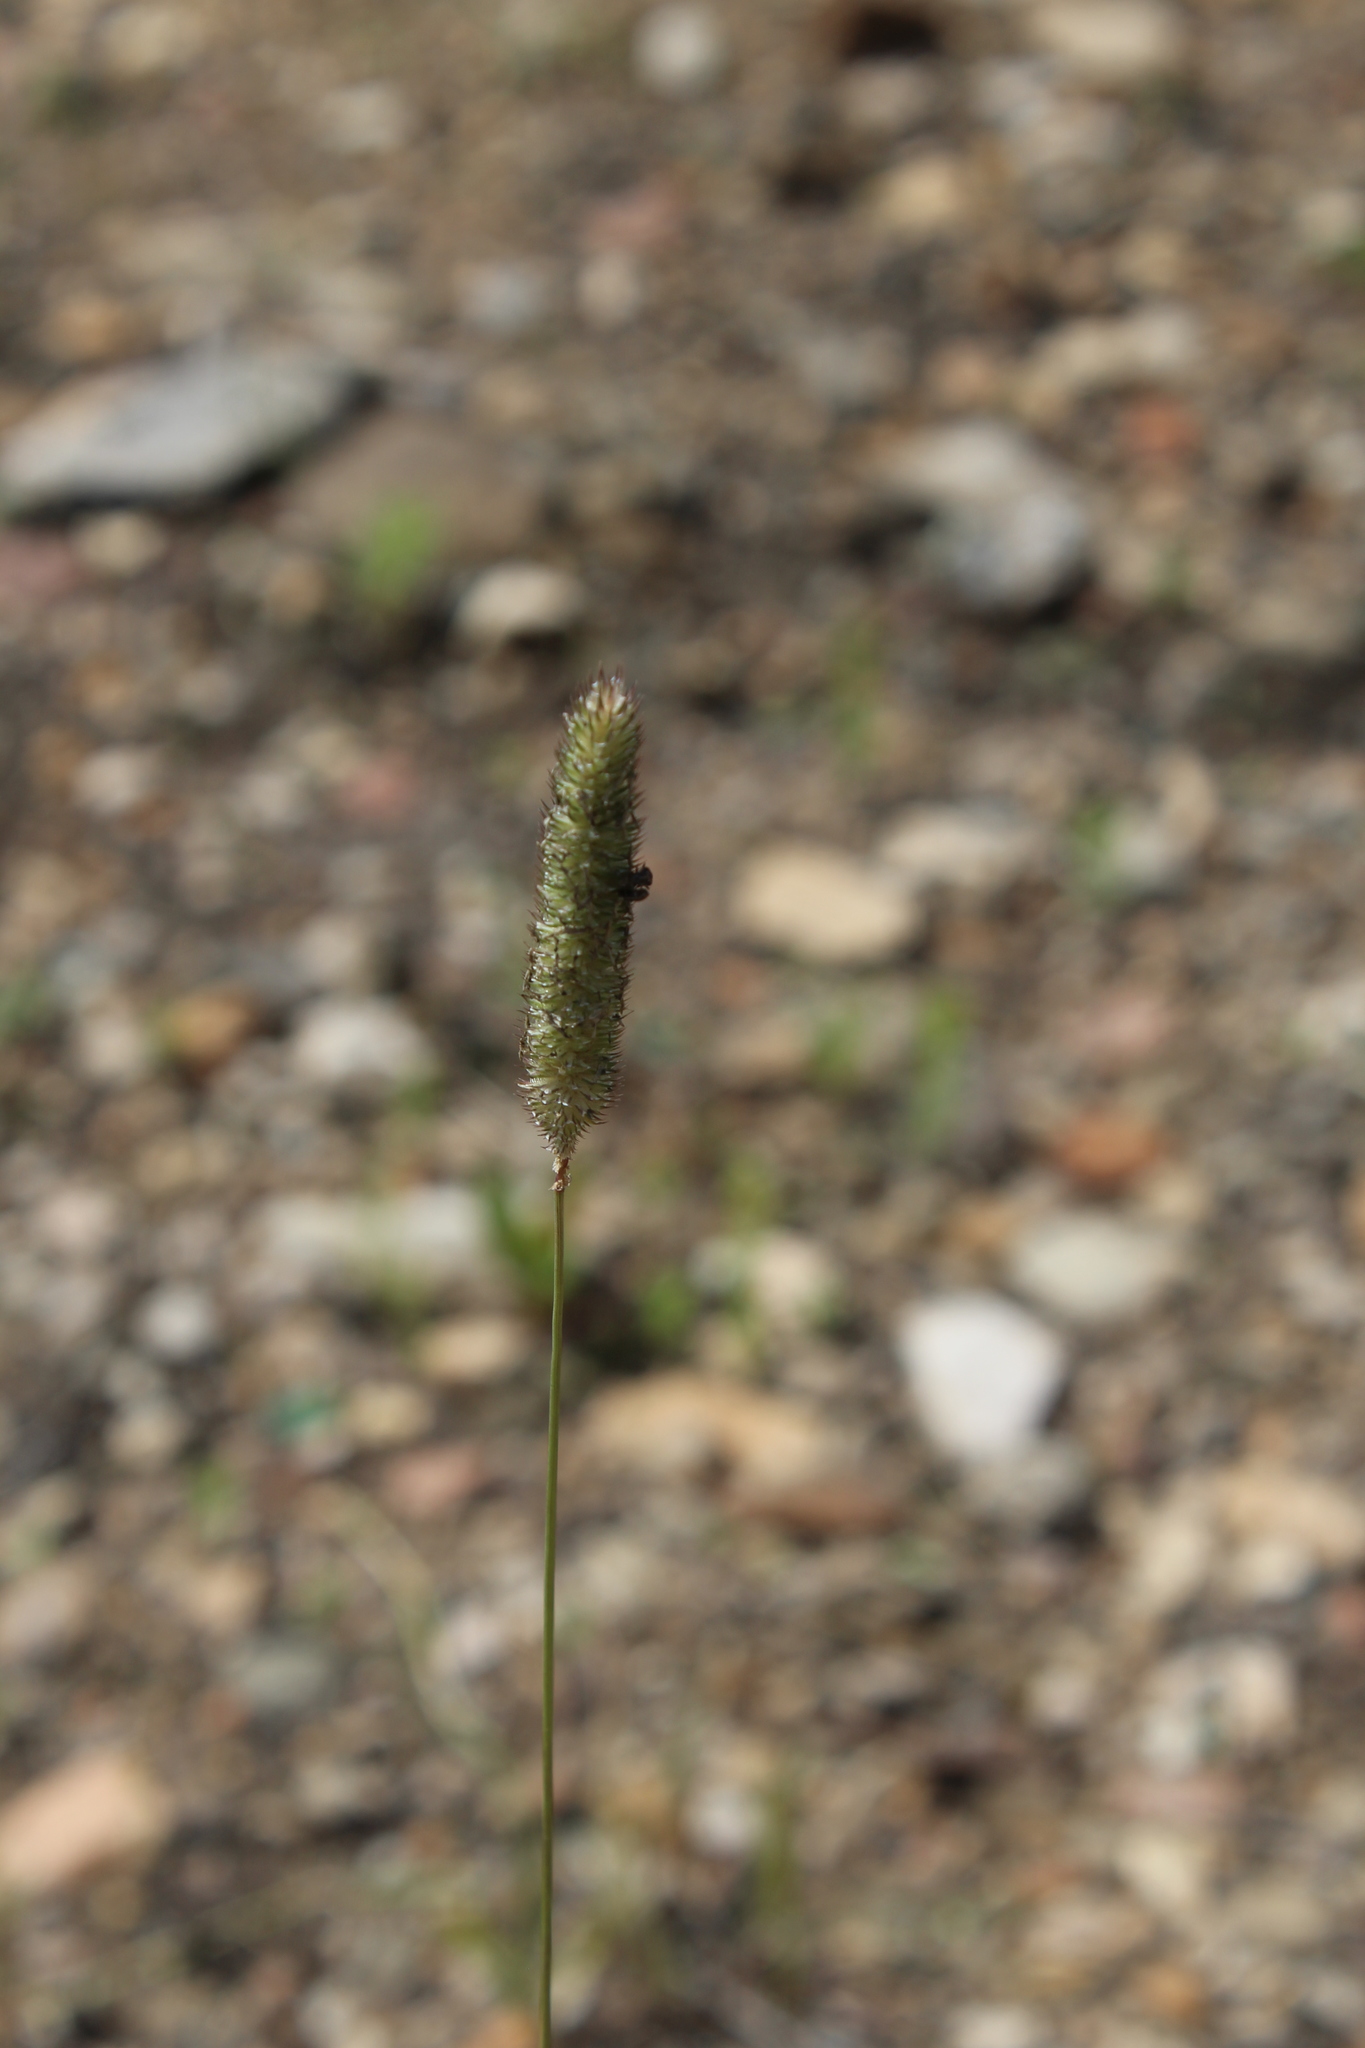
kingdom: Plantae
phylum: Tracheophyta
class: Liliopsida
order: Poales
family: Poaceae
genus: Phleum
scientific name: Phleum pratense
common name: Timothy grass
